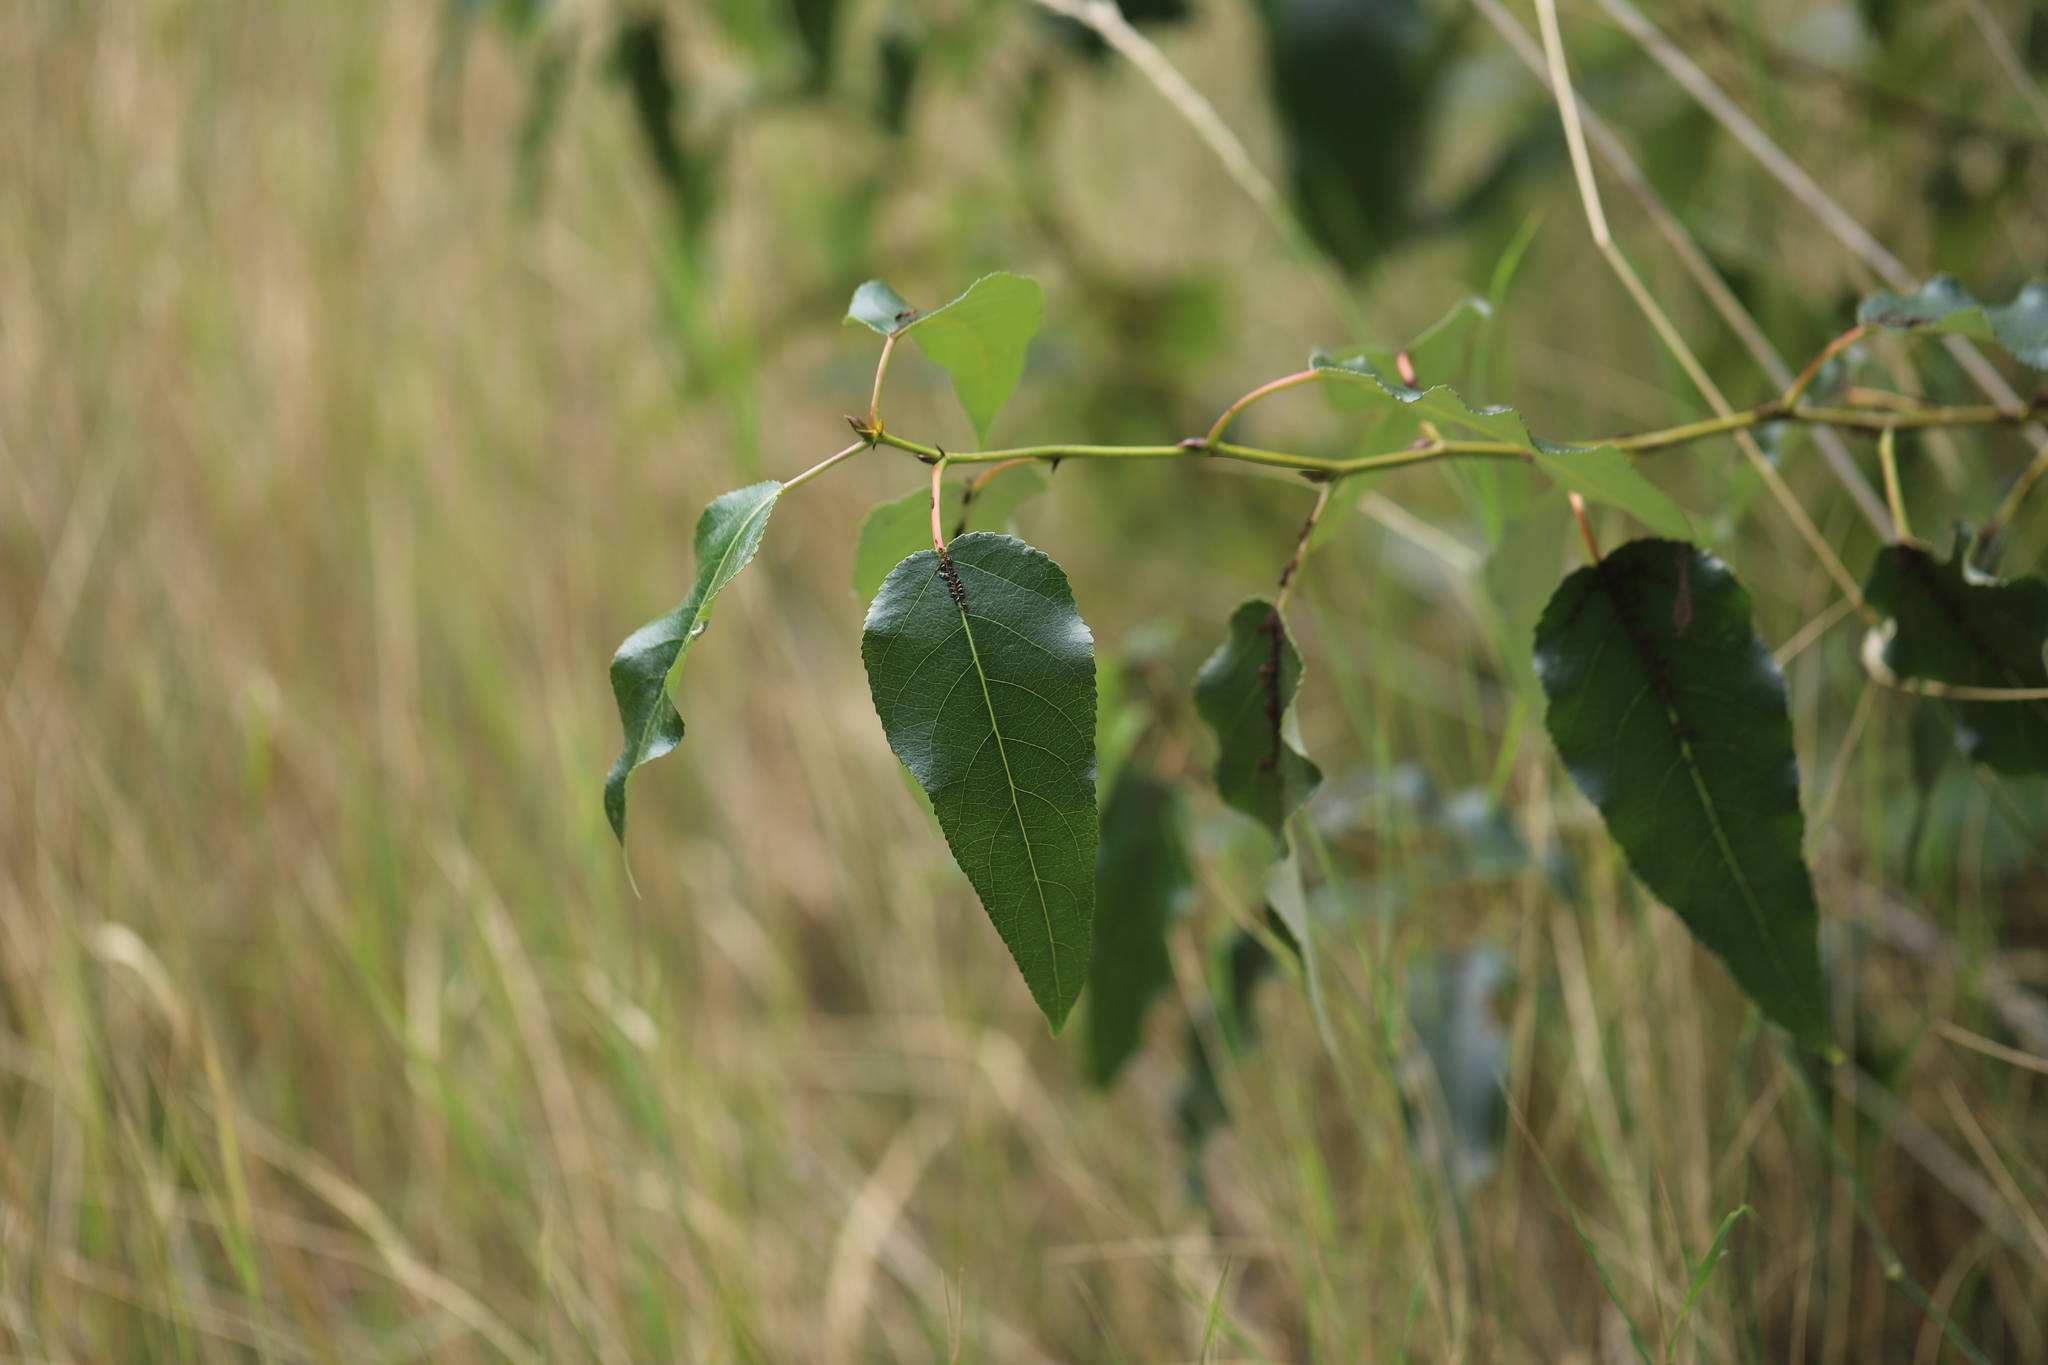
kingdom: Plantae
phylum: Tracheophyta
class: Magnoliopsida
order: Malpighiales
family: Salicaceae
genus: Populus
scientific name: Populus trichocarpa
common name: Black cottonwood
